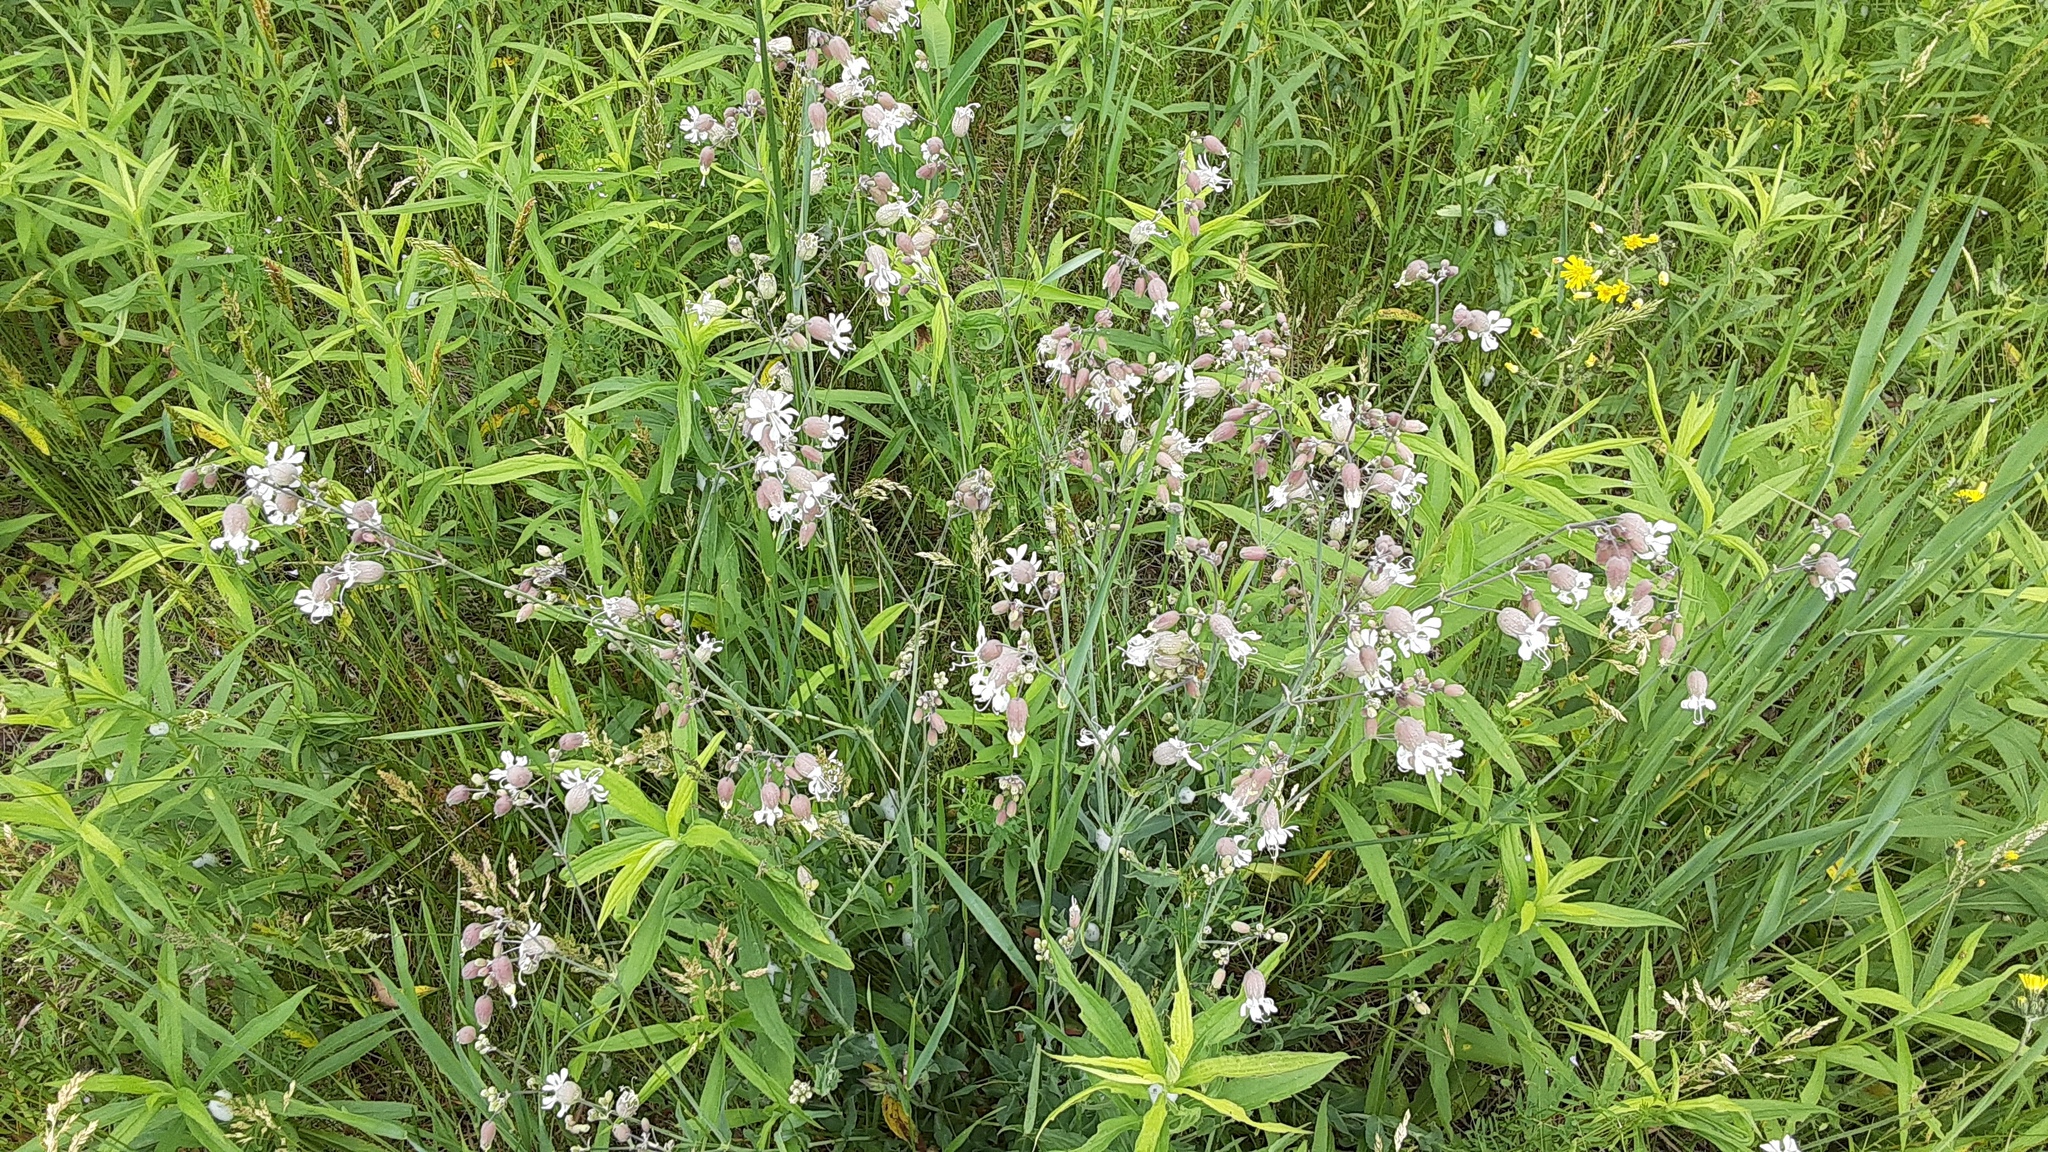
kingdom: Plantae
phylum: Tracheophyta
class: Magnoliopsida
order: Caryophyllales
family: Caryophyllaceae
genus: Silene
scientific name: Silene vulgaris
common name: Bladder campion
